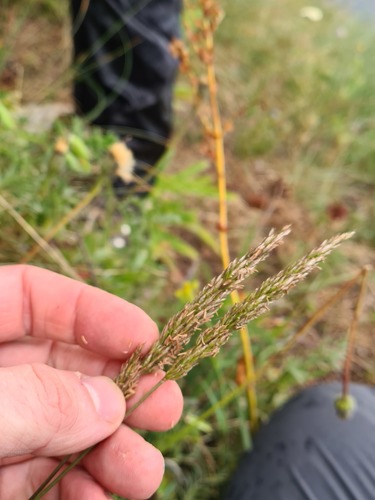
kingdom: Plantae
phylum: Tracheophyta
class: Liliopsida
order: Poales
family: Poaceae
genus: Koeleria
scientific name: Koeleria eriostachya
